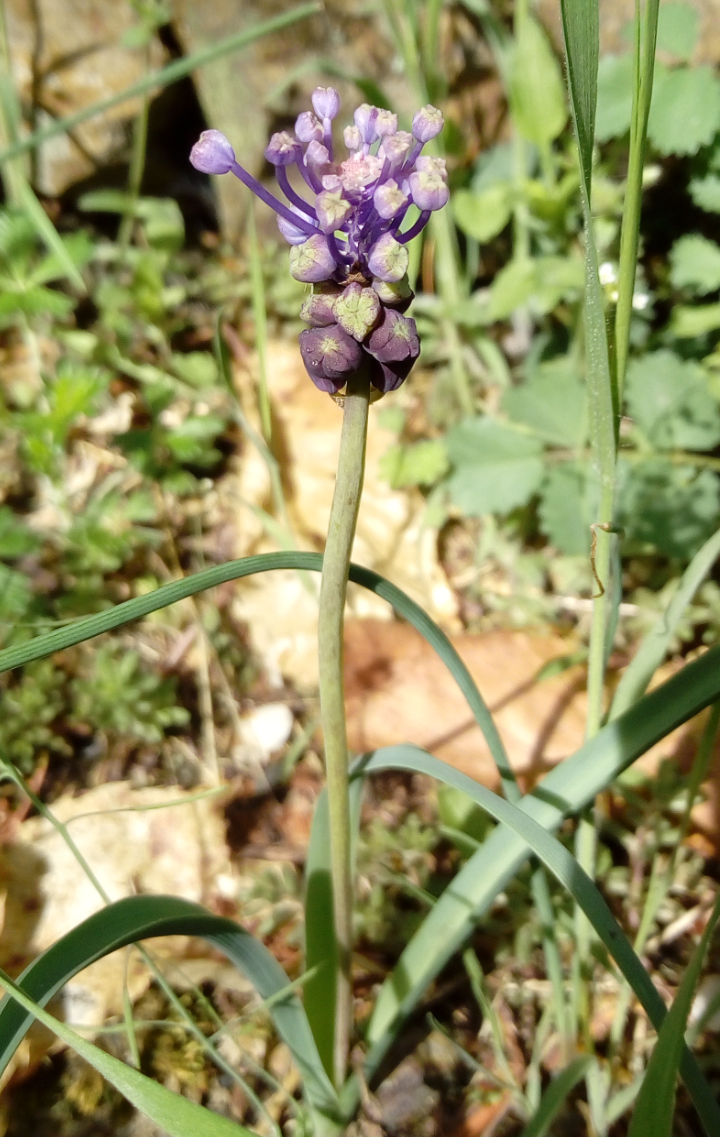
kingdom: Plantae
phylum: Tracheophyta
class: Liliopsida
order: Asparagales
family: Asparagaceae
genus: Muscari
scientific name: Muscari comosum
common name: Tassel hyacinth
